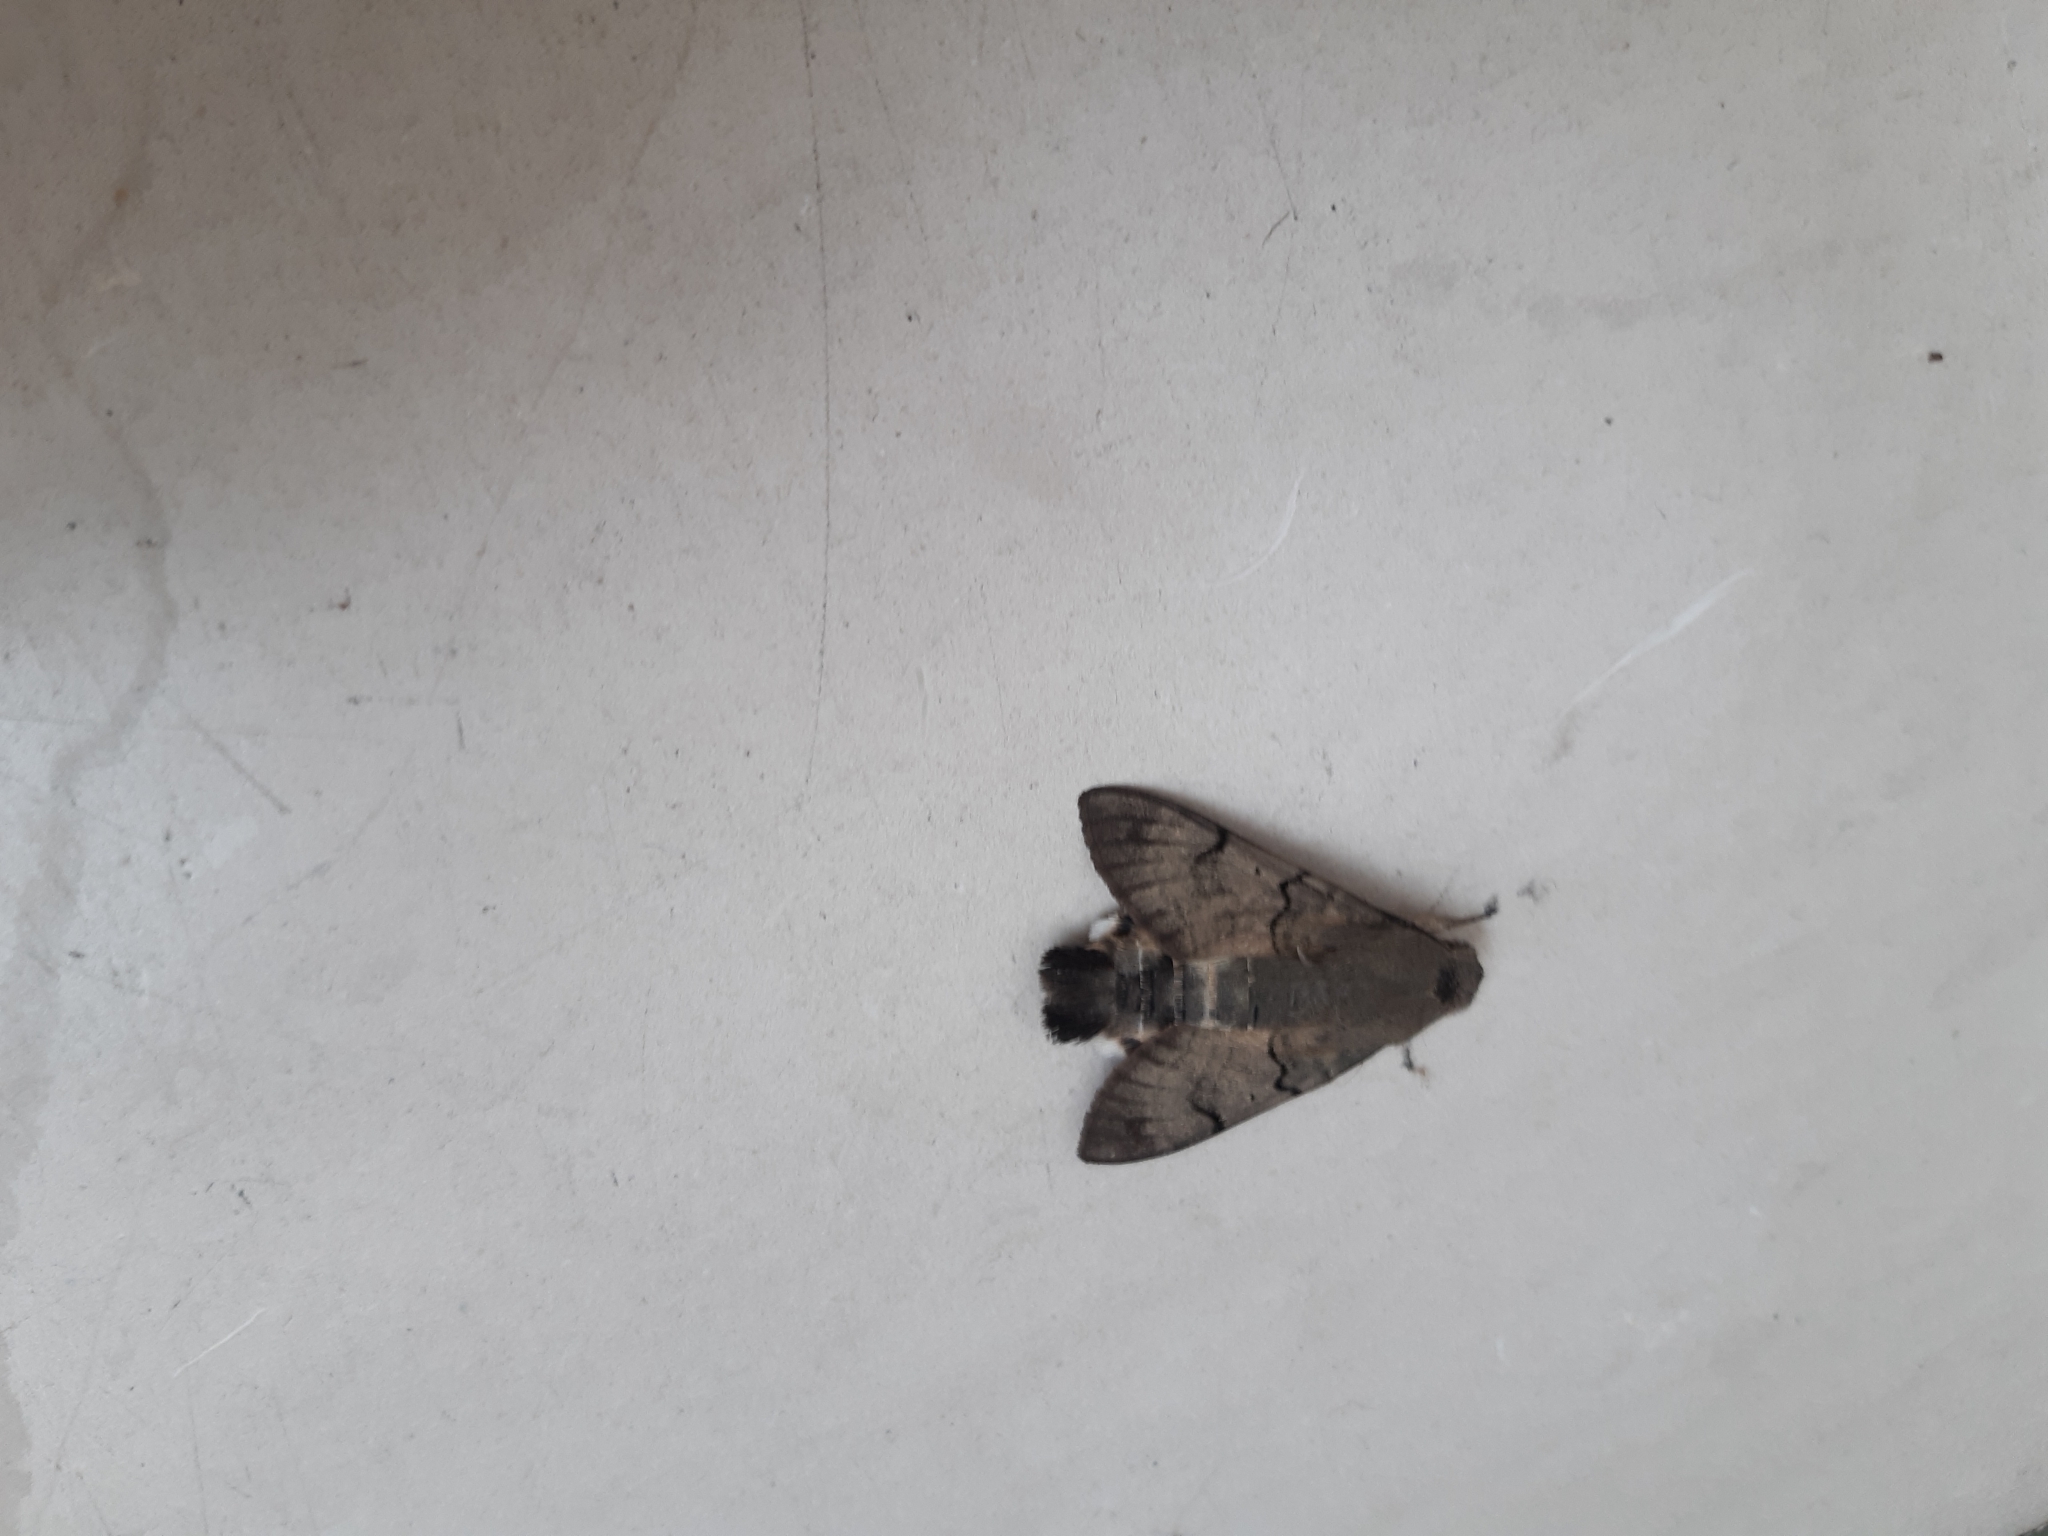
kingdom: Animalia
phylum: Arthropoda
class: Insecta
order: Lepidoptera
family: Sphingidae
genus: Macroglossum
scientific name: Macroglossum stellatarum
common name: Humming-bird hawk-moth
